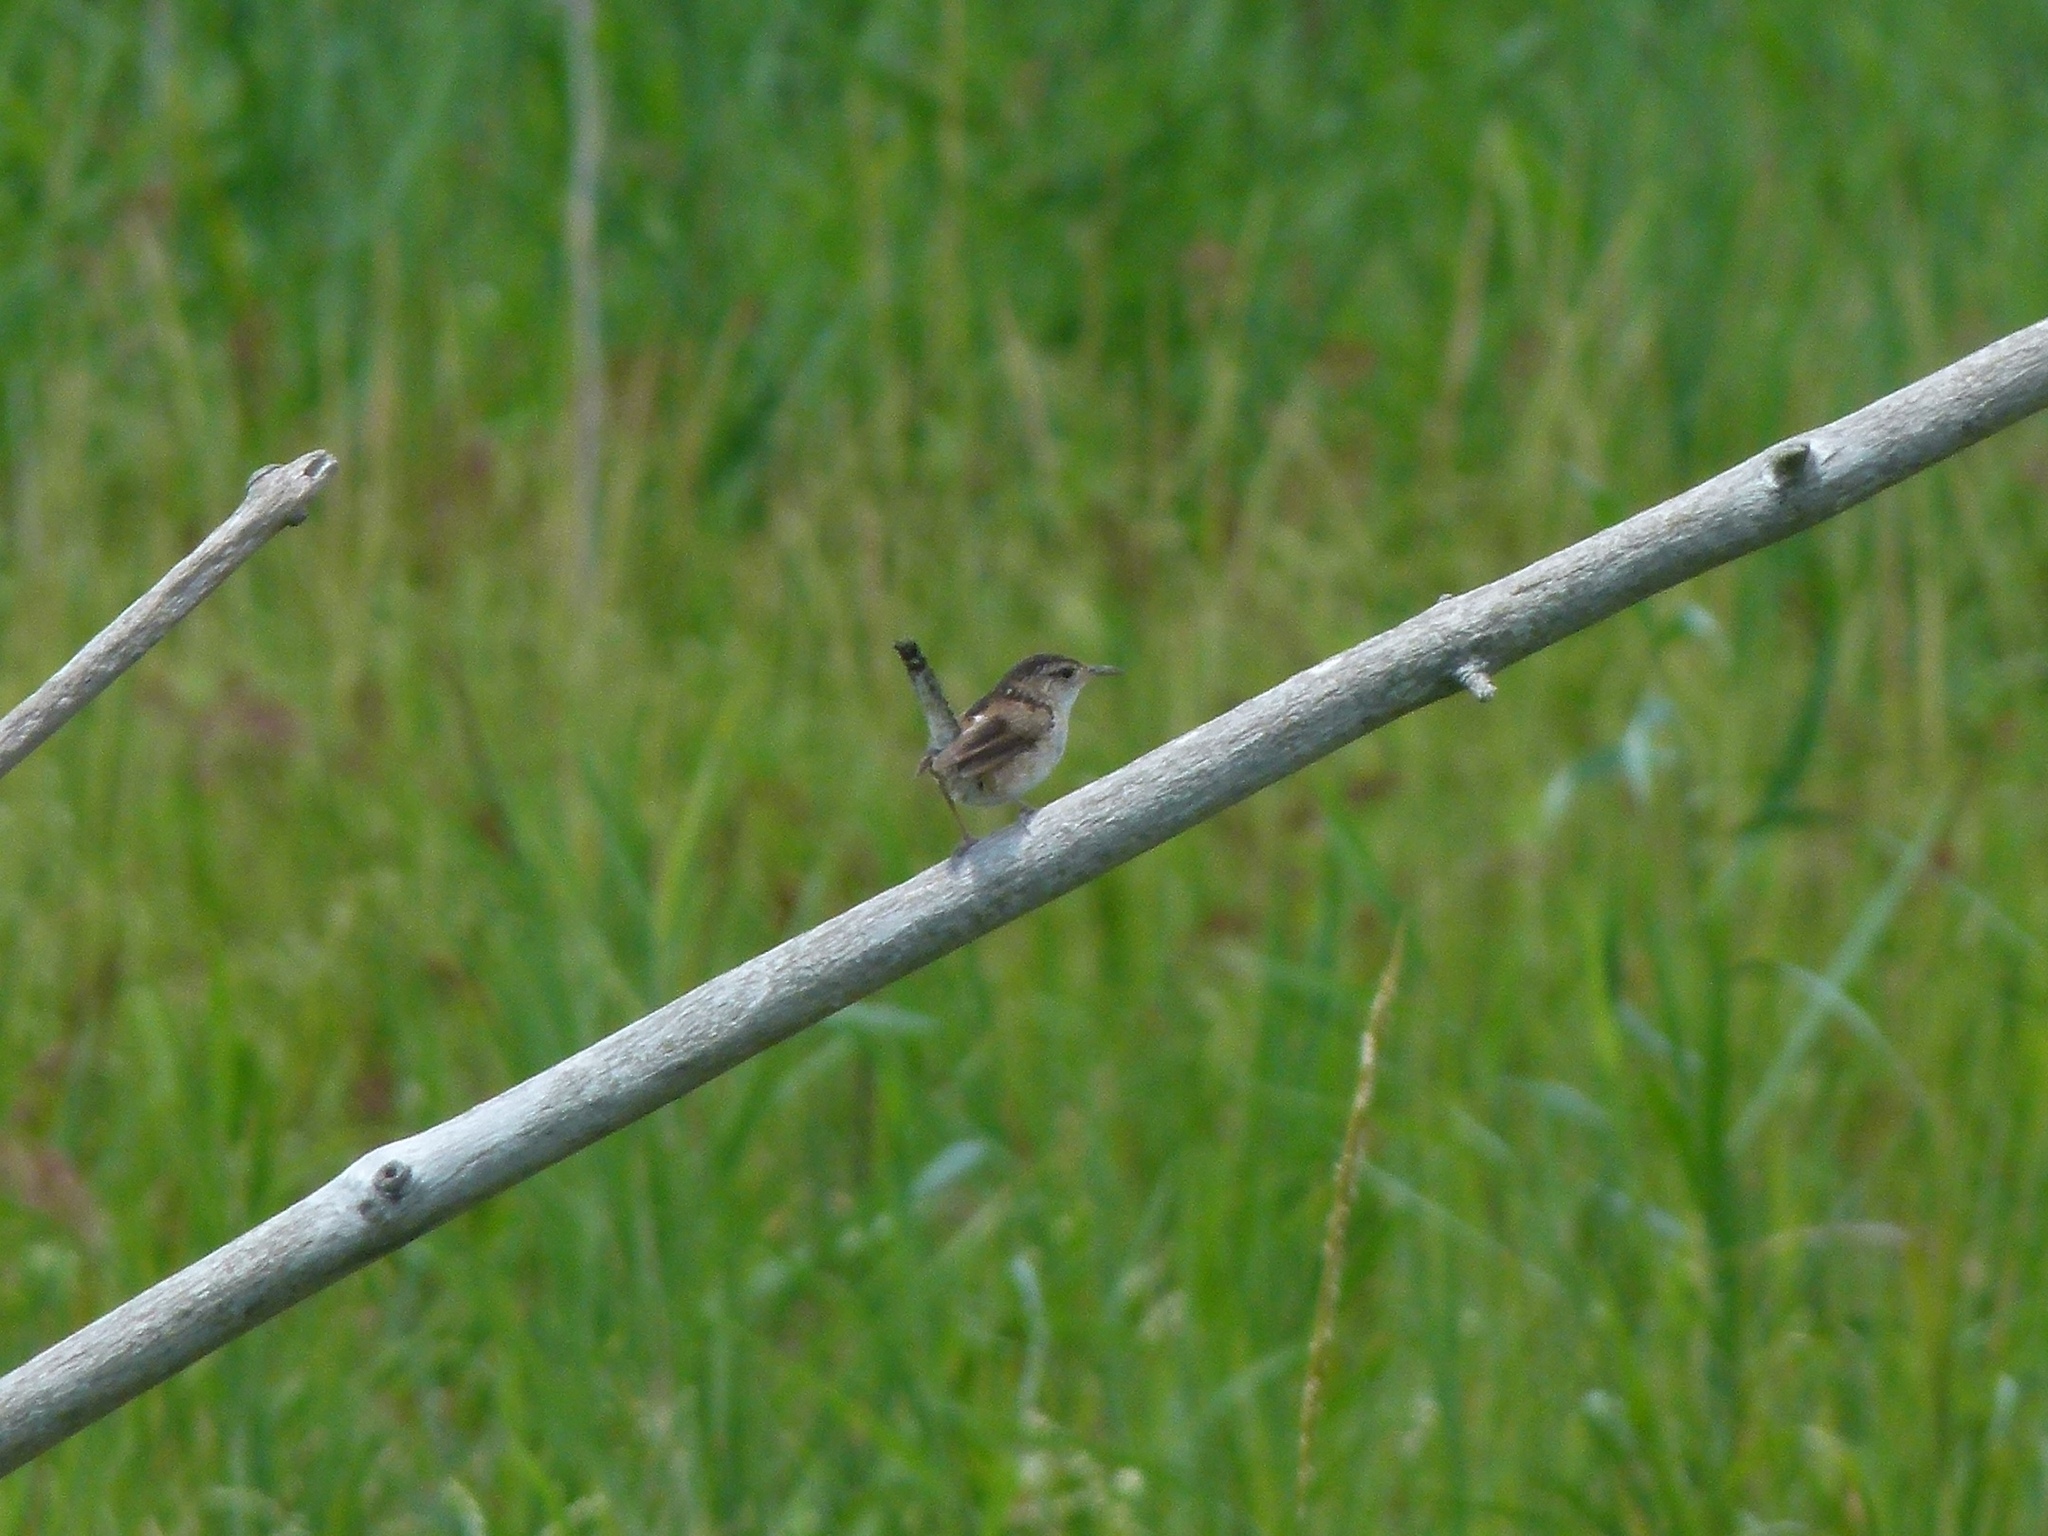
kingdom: Animalia
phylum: Chordata
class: Aves
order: Passeriformes
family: Troglodytidae
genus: Cistothorus
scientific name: Cistothorus palustris
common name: Marsh wren
